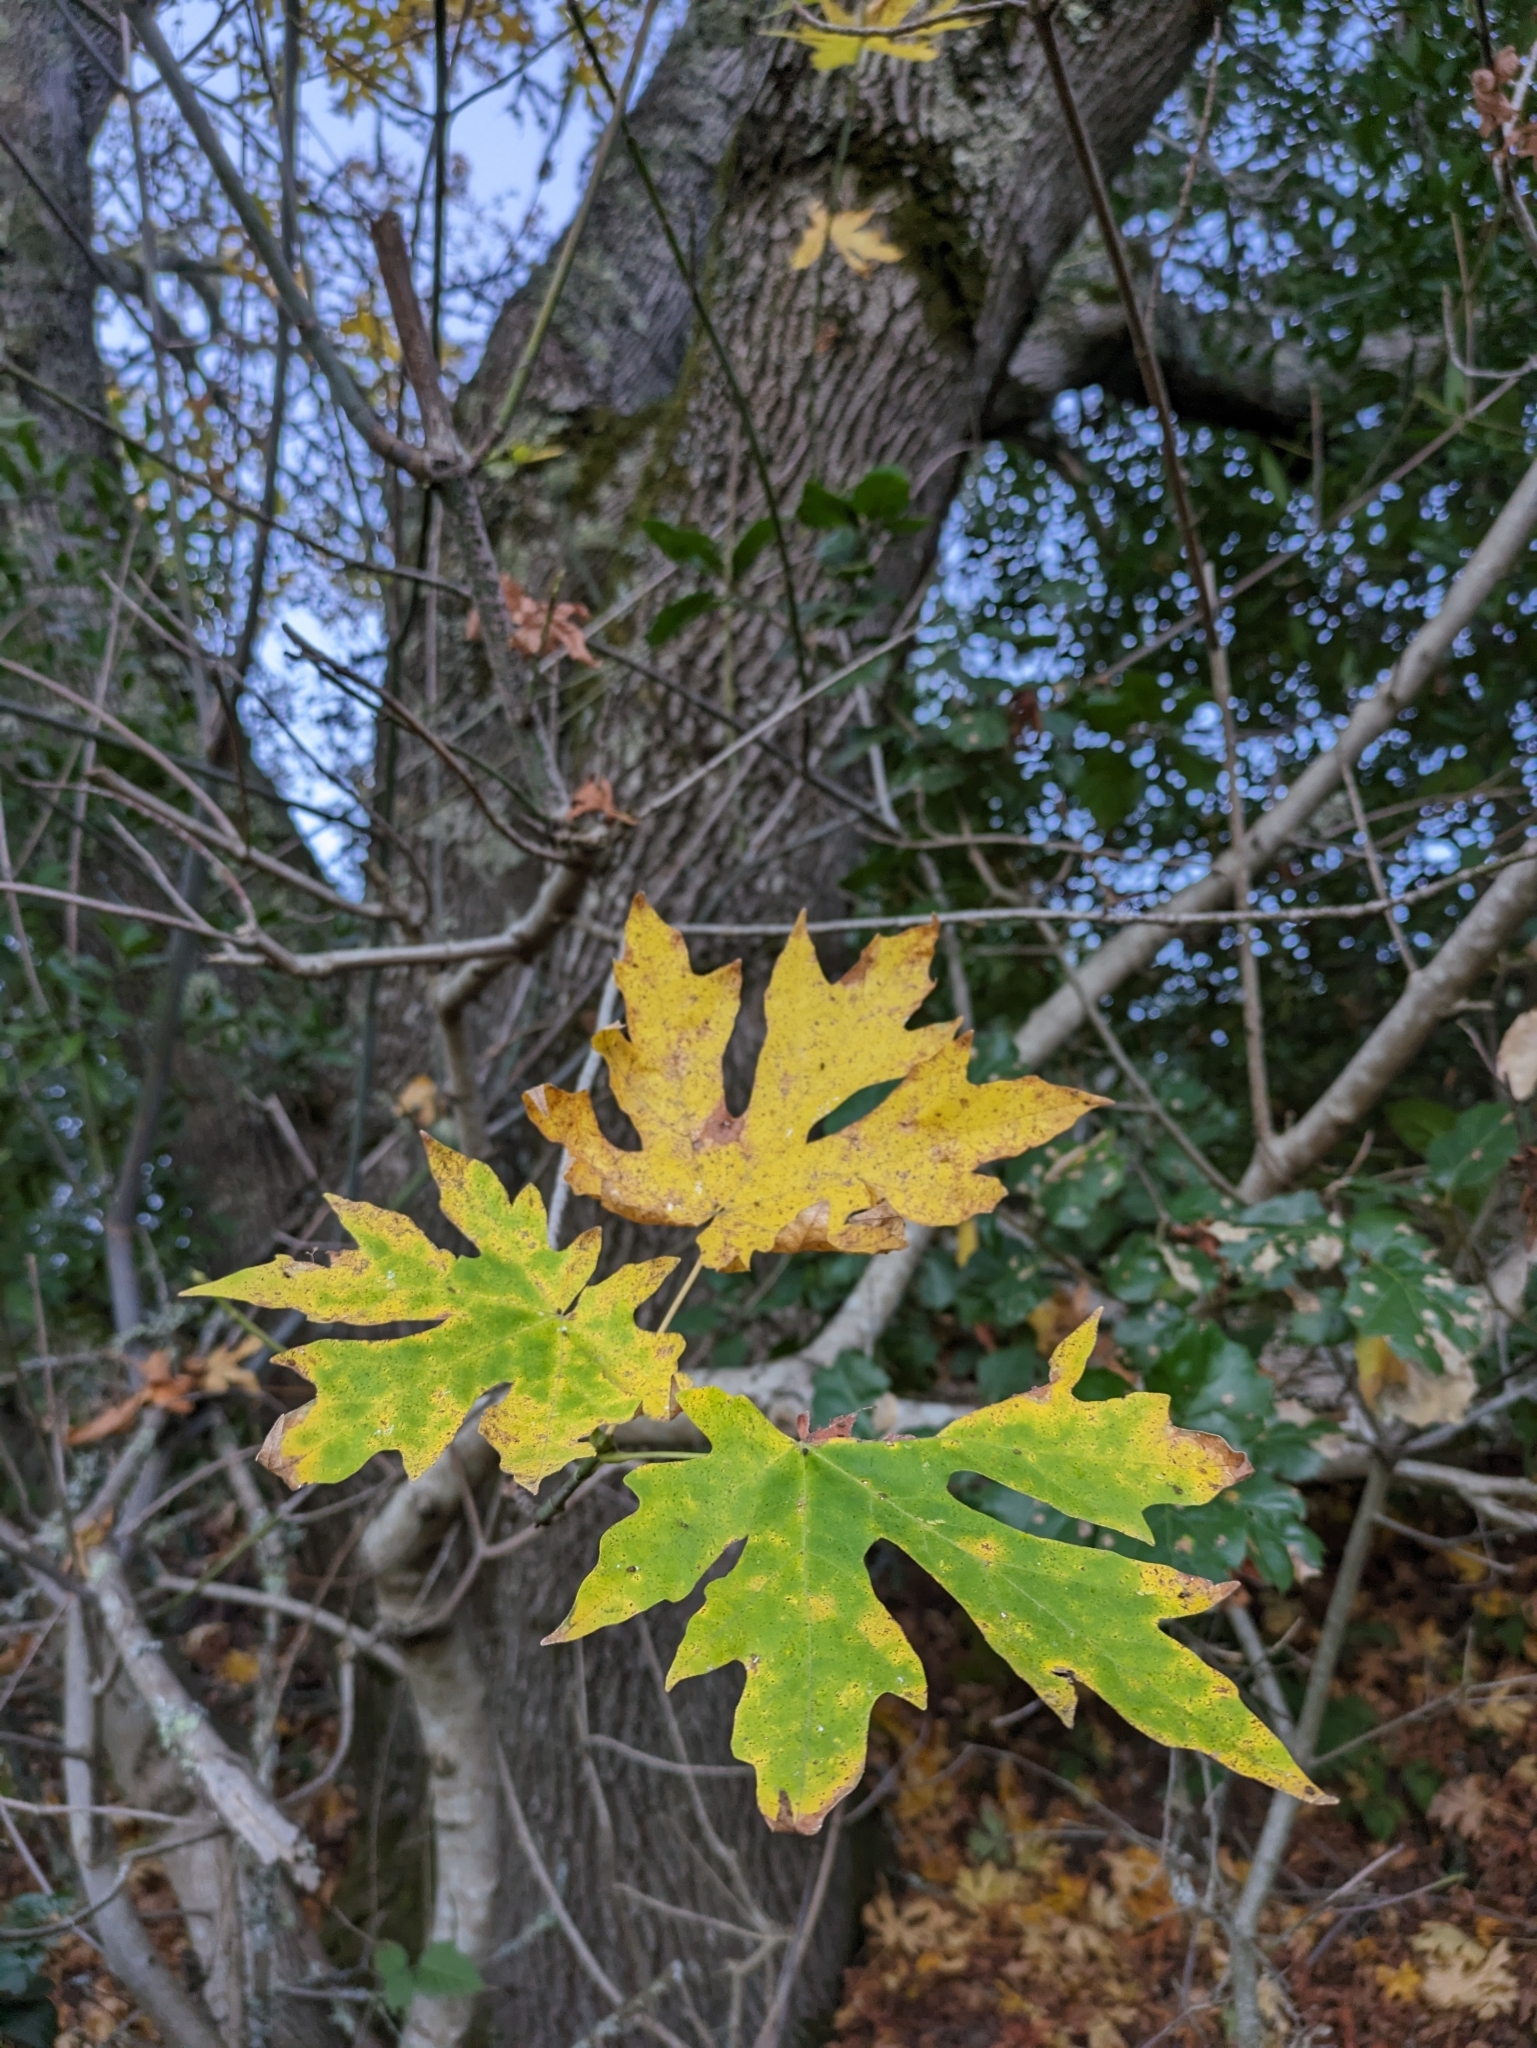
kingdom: Plantae
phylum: Tracheophyta
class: Magnoliopsida
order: Sapindales
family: Sapindaceae
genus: Acer
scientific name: Acer macrophyllum
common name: Oregon maple
